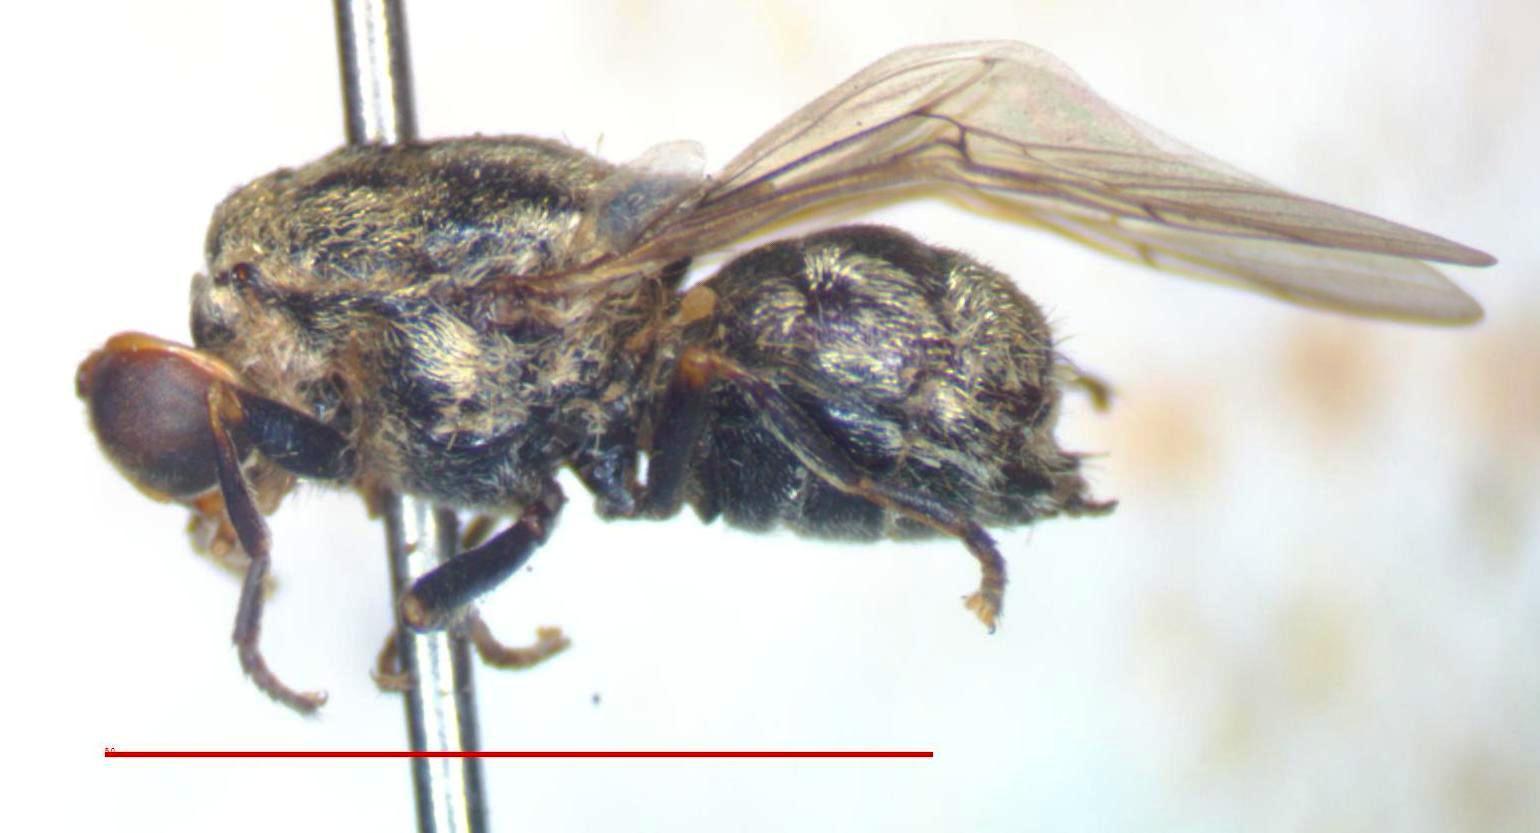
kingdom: Animalia
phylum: Arthropoda
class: Insecta
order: Diptera
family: Stratiomyidae
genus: Artemita
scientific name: Artemita bellardii
